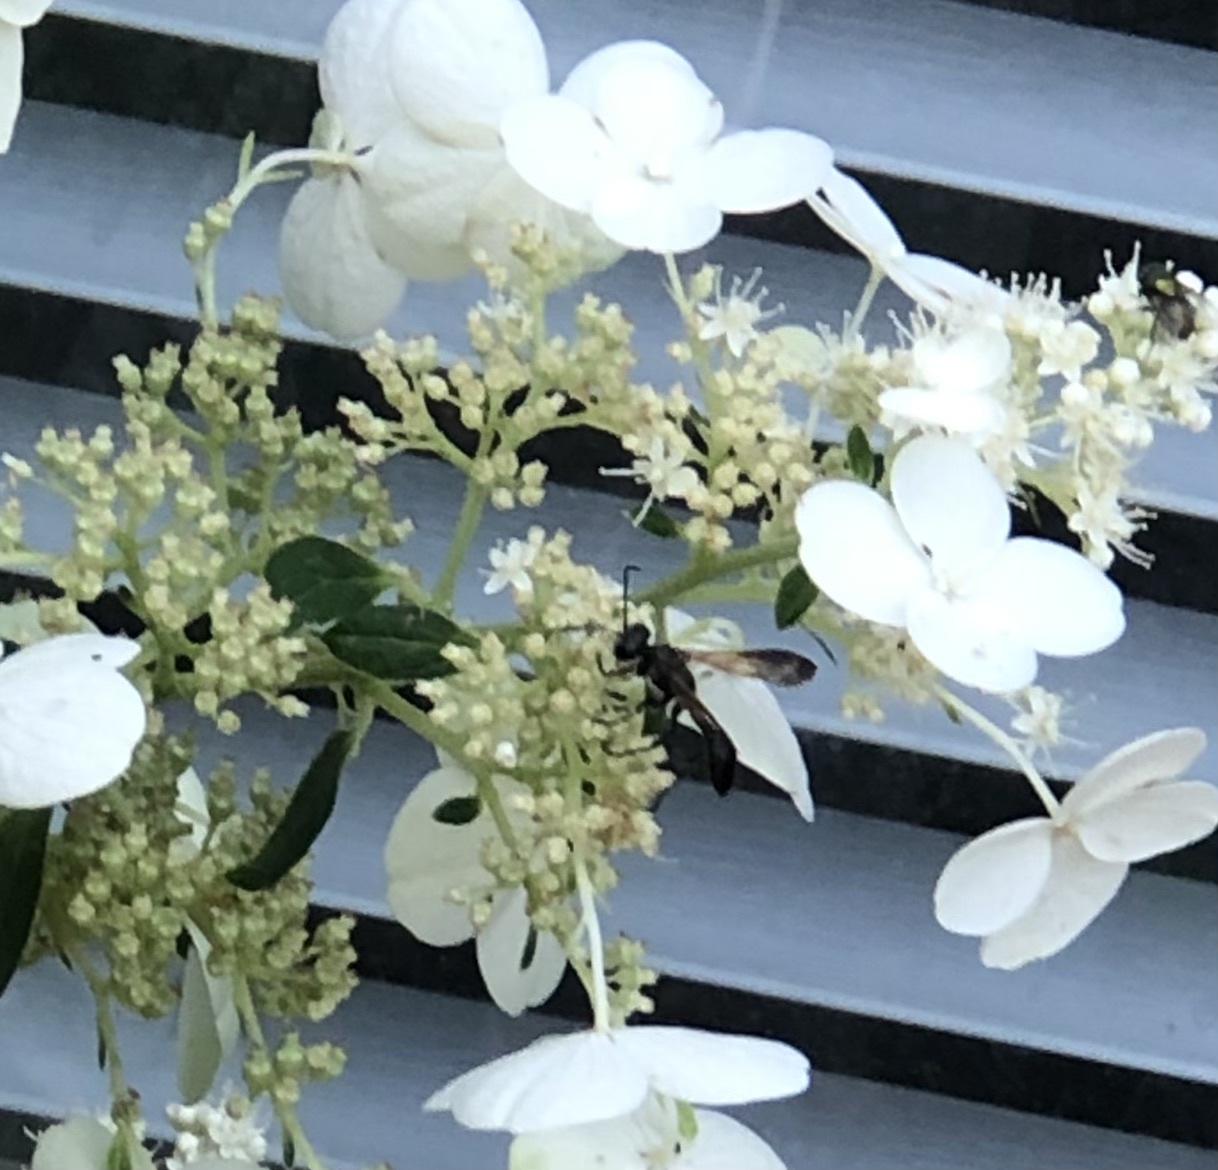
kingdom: Animalia
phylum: Arthropoda
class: Insecta
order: Hymenoptera
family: Sphecidae
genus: Isodontia
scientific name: Isodontia mexicana
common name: Mud dauber
